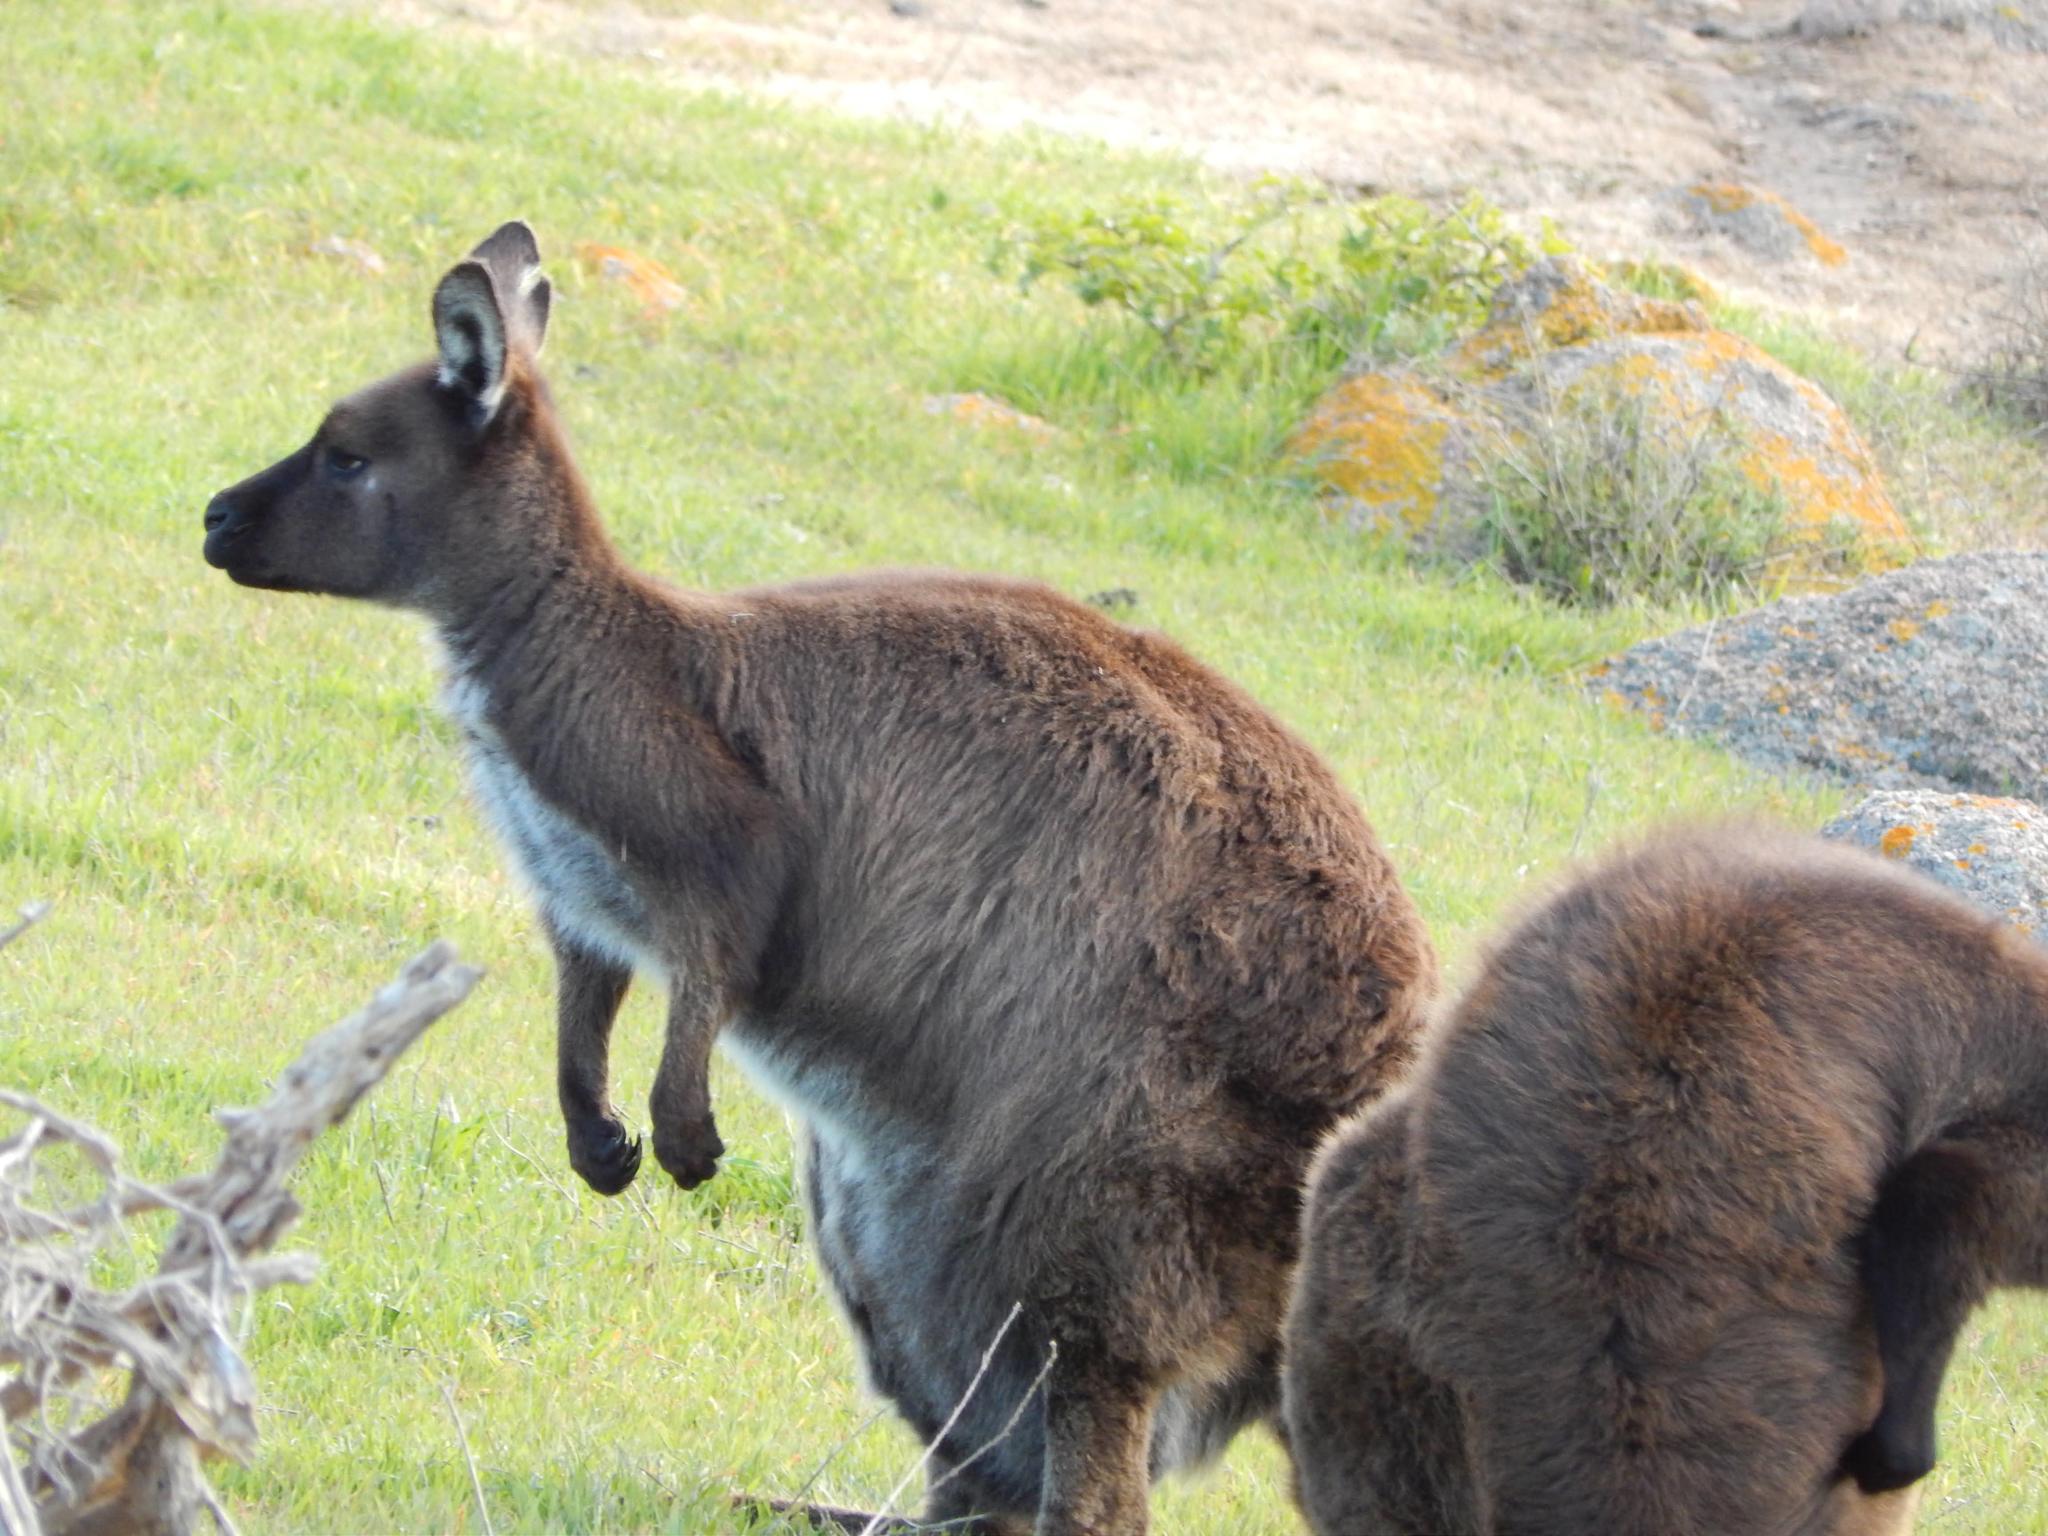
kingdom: Animalia
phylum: Chordata
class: Mammalia
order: Diprotodontia
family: Macropodidae
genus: Macropus
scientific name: Macropus fuliginosus
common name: Western grey kangaroo
